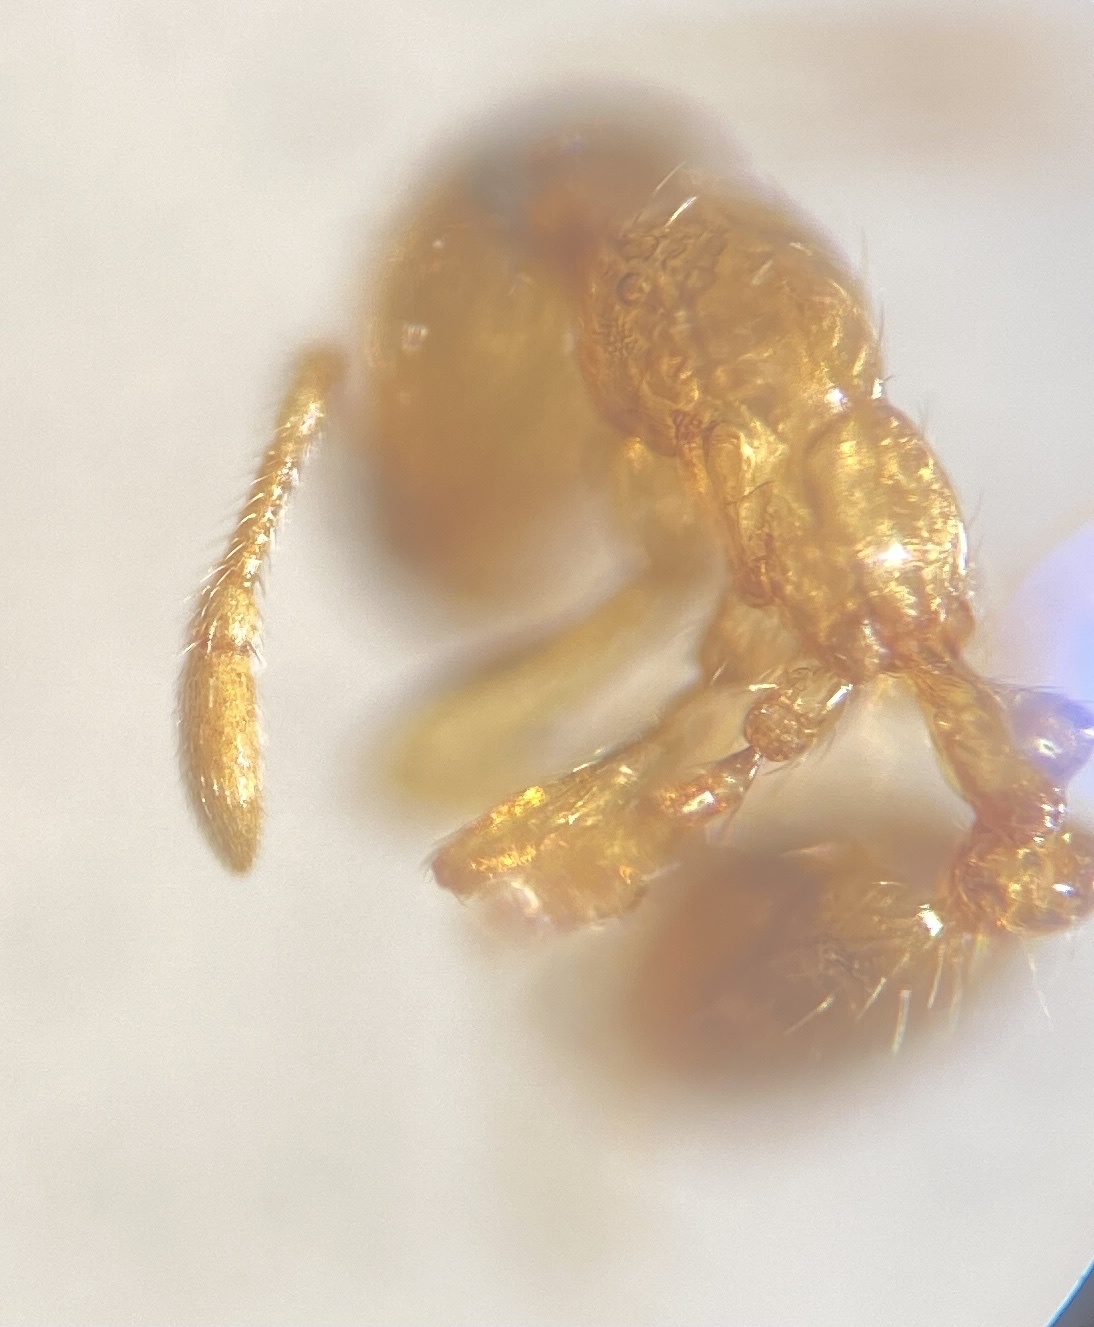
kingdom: Animalia
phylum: Arthropoda
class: Insecta
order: Hymenoptera
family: Formicidae
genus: Solenopsis
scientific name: Solenopsis molesta
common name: Thief ant
